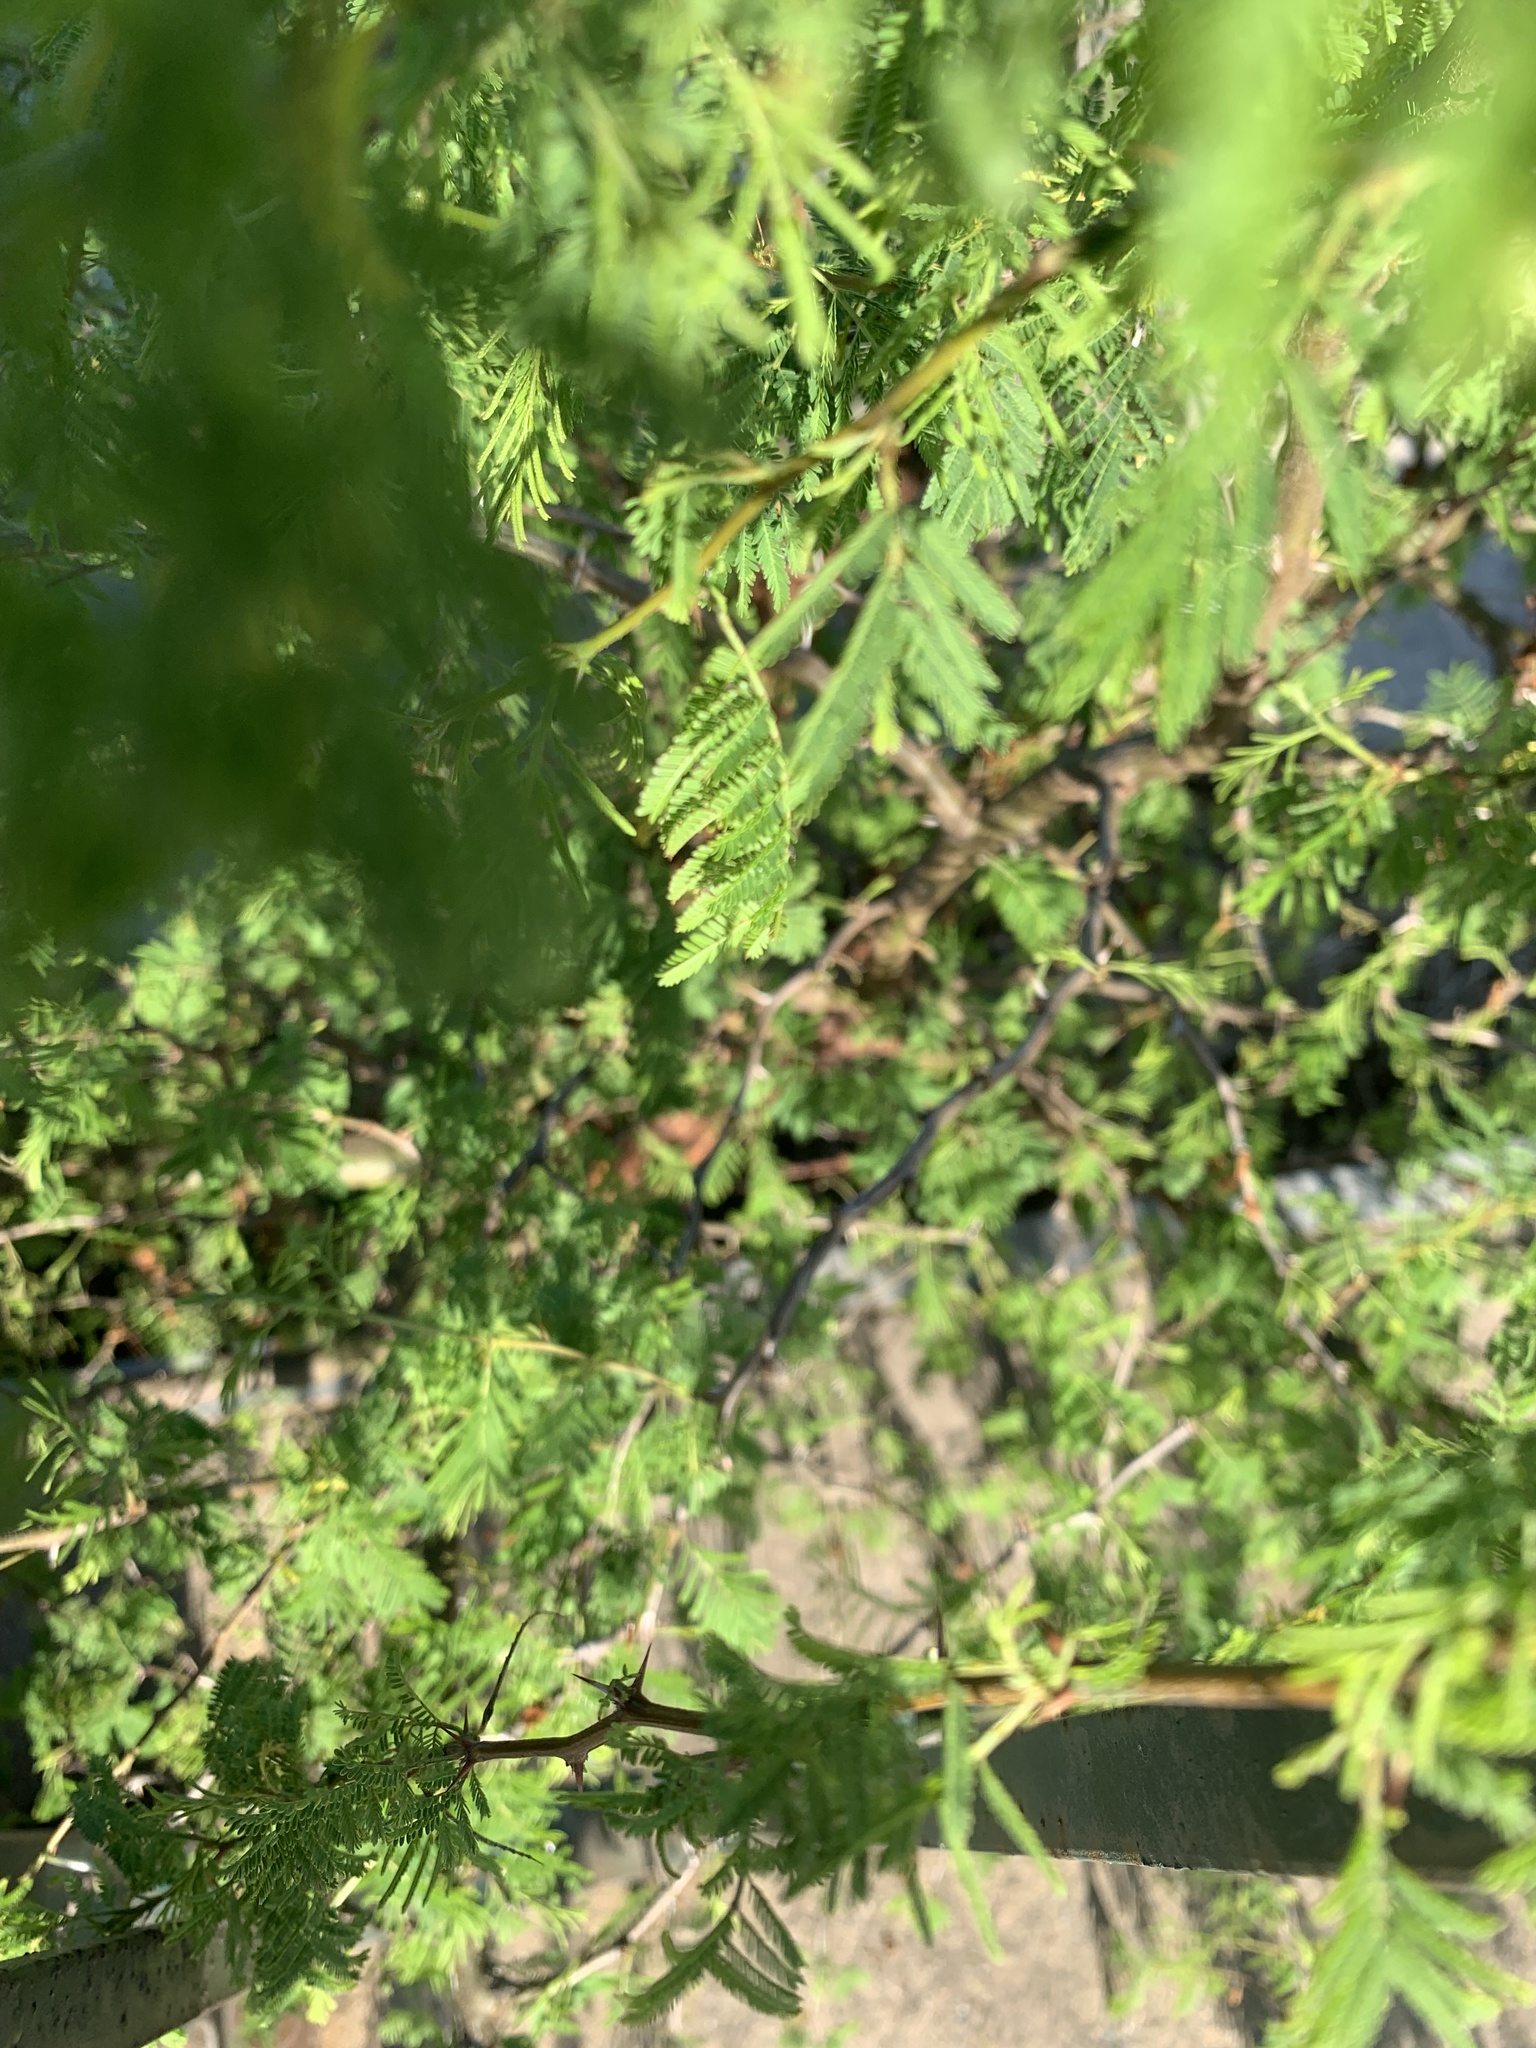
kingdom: Plantae
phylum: Tracheophyta
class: Magnoliopsida
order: Fabales
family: Fabaceae
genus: Vachellia
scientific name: Vachellia caven
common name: Roman cassie
